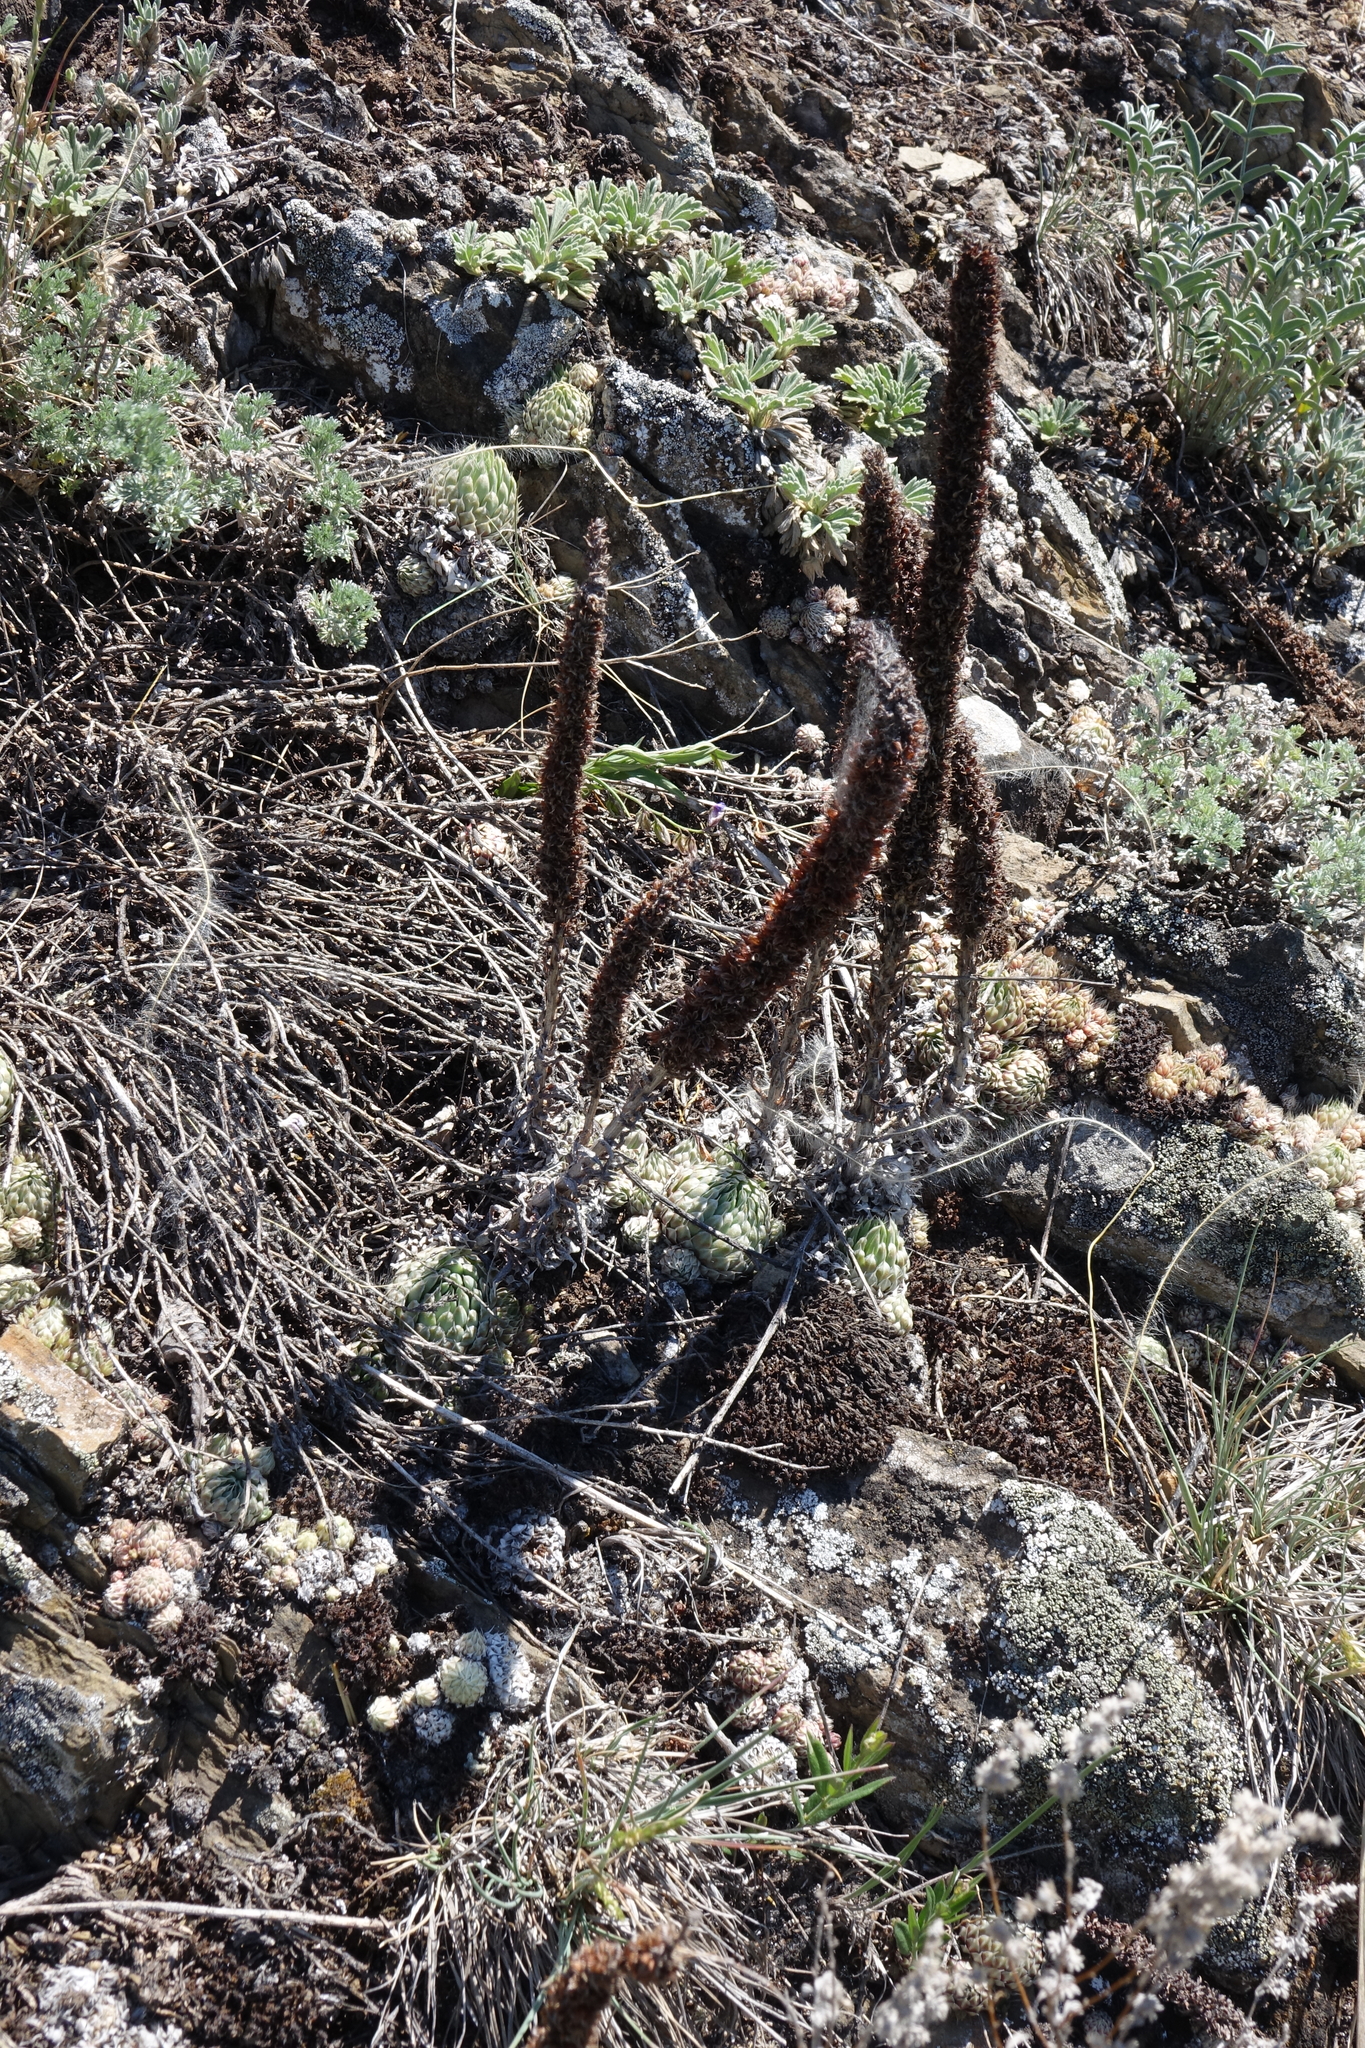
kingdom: Plantae
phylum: Tracheophyta
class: Magnoliopsida
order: Saxifragales
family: Crassulaceae
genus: Orostachys
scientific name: Orostachys spinosa
